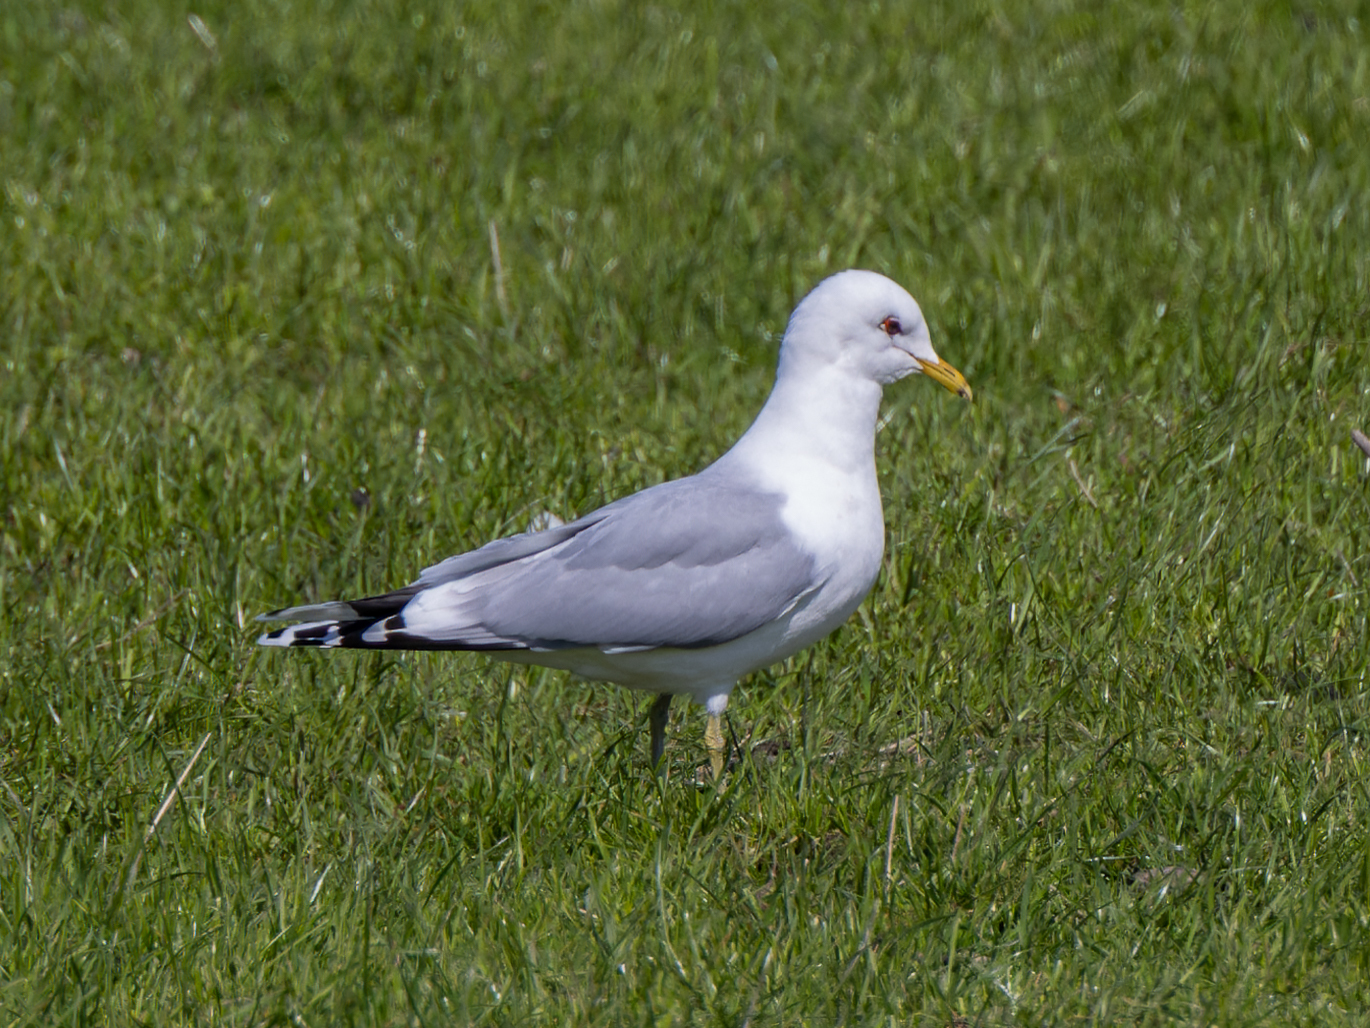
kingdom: Animalia
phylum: Chordata
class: Aves
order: Charadriiformes
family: Laridae
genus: Larus
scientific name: Larus canus
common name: Mew gull
